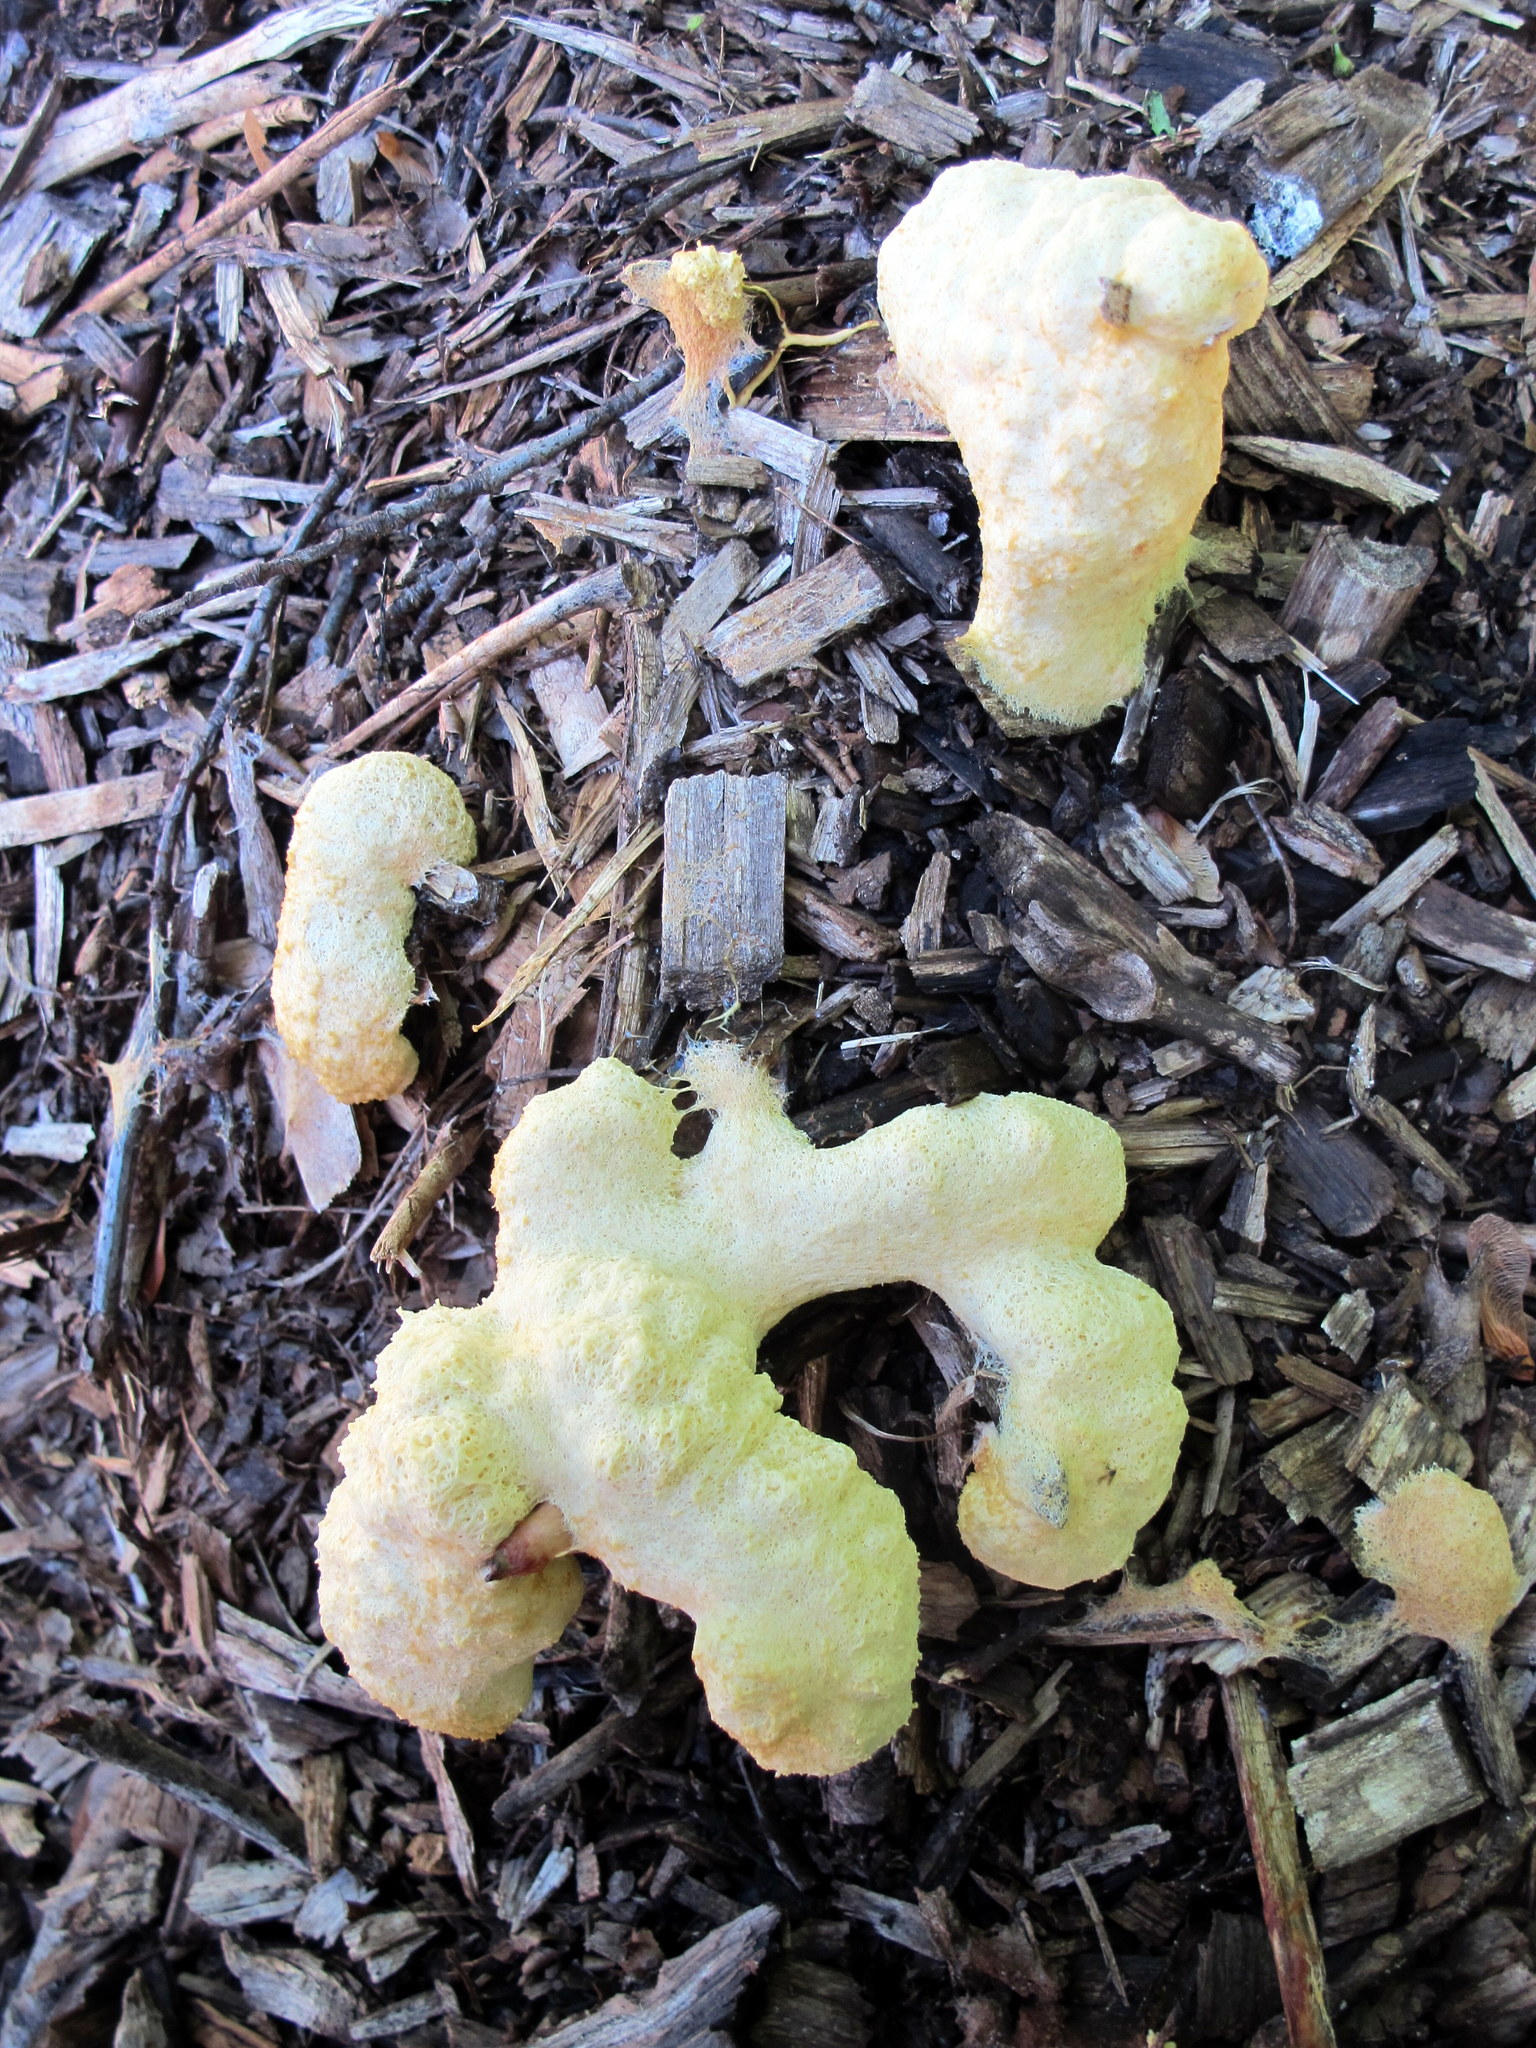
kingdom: Protozoa
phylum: Mycetozoa
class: Myxomycetes
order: Physarales
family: Physaraceae
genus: Fuligo
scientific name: Fuligo septica
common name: Dog vomit slime mold
